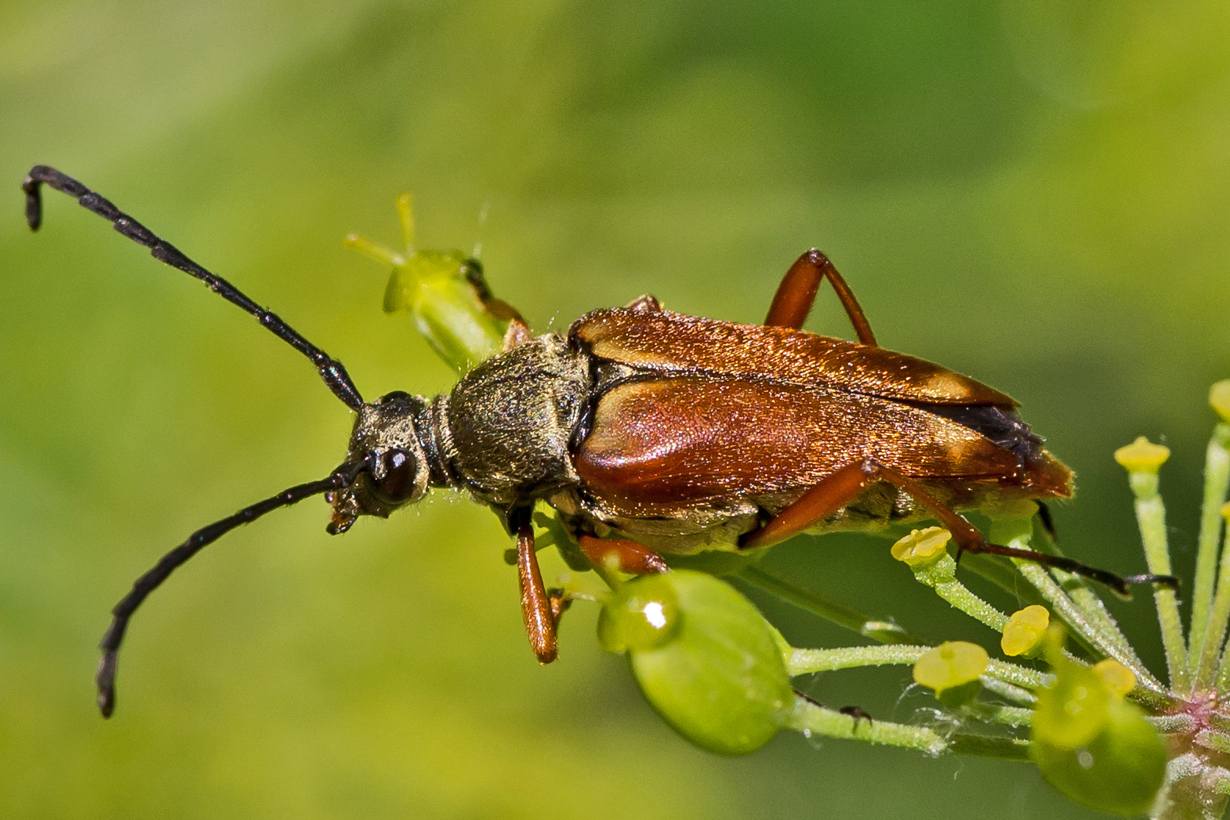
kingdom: Animalia
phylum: Arthropoda
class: Insecta
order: Coleoptera
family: Cerambycidae
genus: Typocerus
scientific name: Typocerus acuticauda
